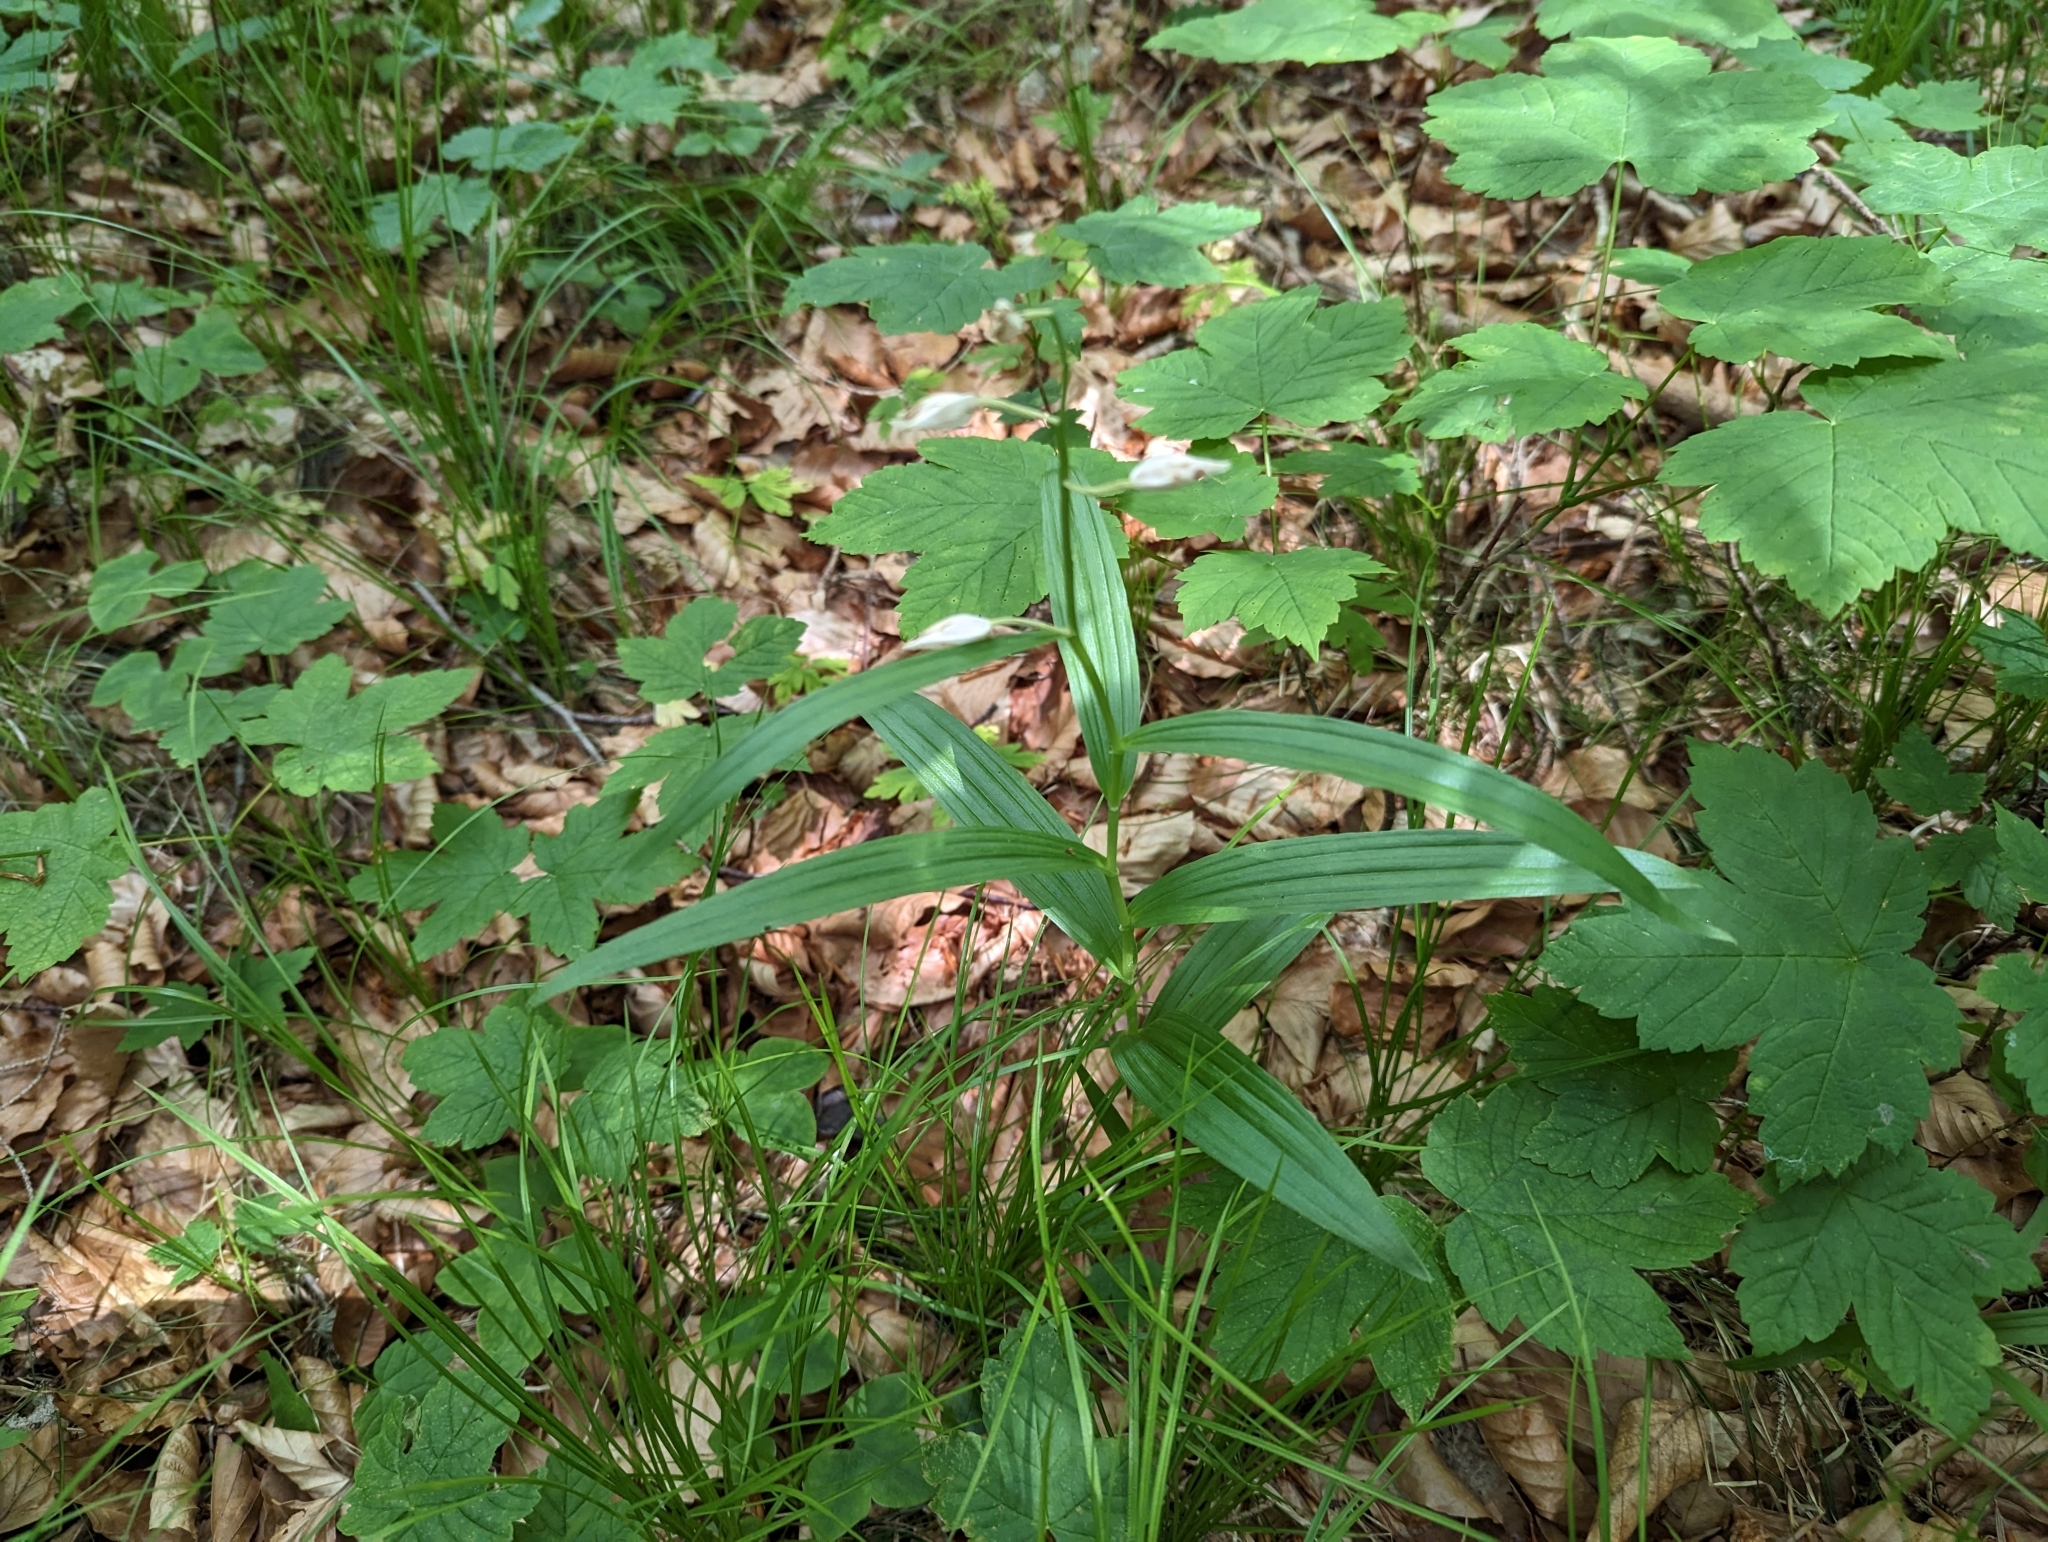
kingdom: Plantae
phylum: Tracheophyta
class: Liliopsida
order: Asparagales
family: Orchidaceae
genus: Cephalanthera
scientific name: Cephalanthera longifolia
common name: Narrow-leaved helleborine
